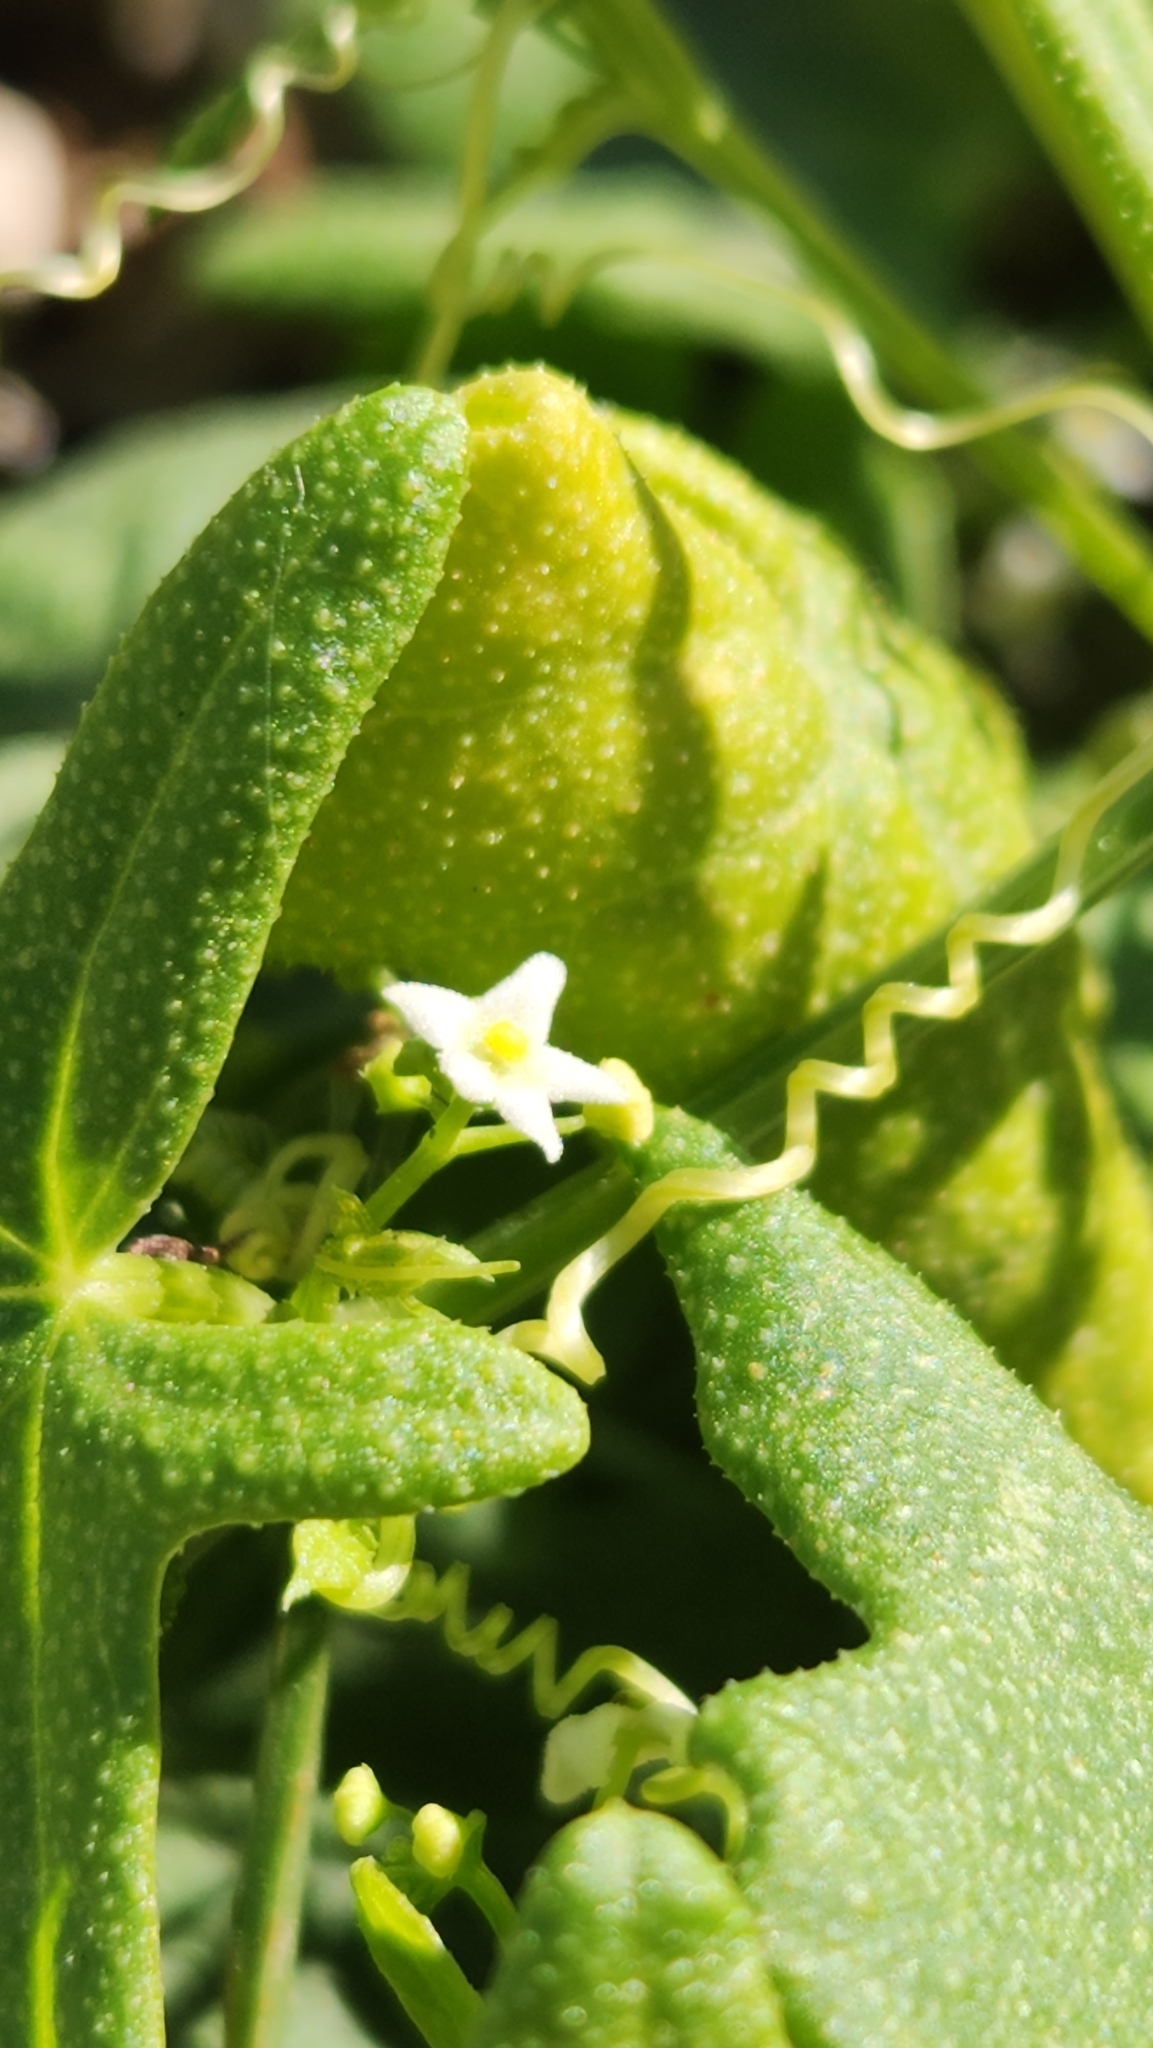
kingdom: Plantae
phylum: Tracheophyta
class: Magnoliopsida
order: Cucurbitales
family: Cucurbitaceae
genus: Echinopepon
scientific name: Echinopepon bigelovii
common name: Desert starvine
